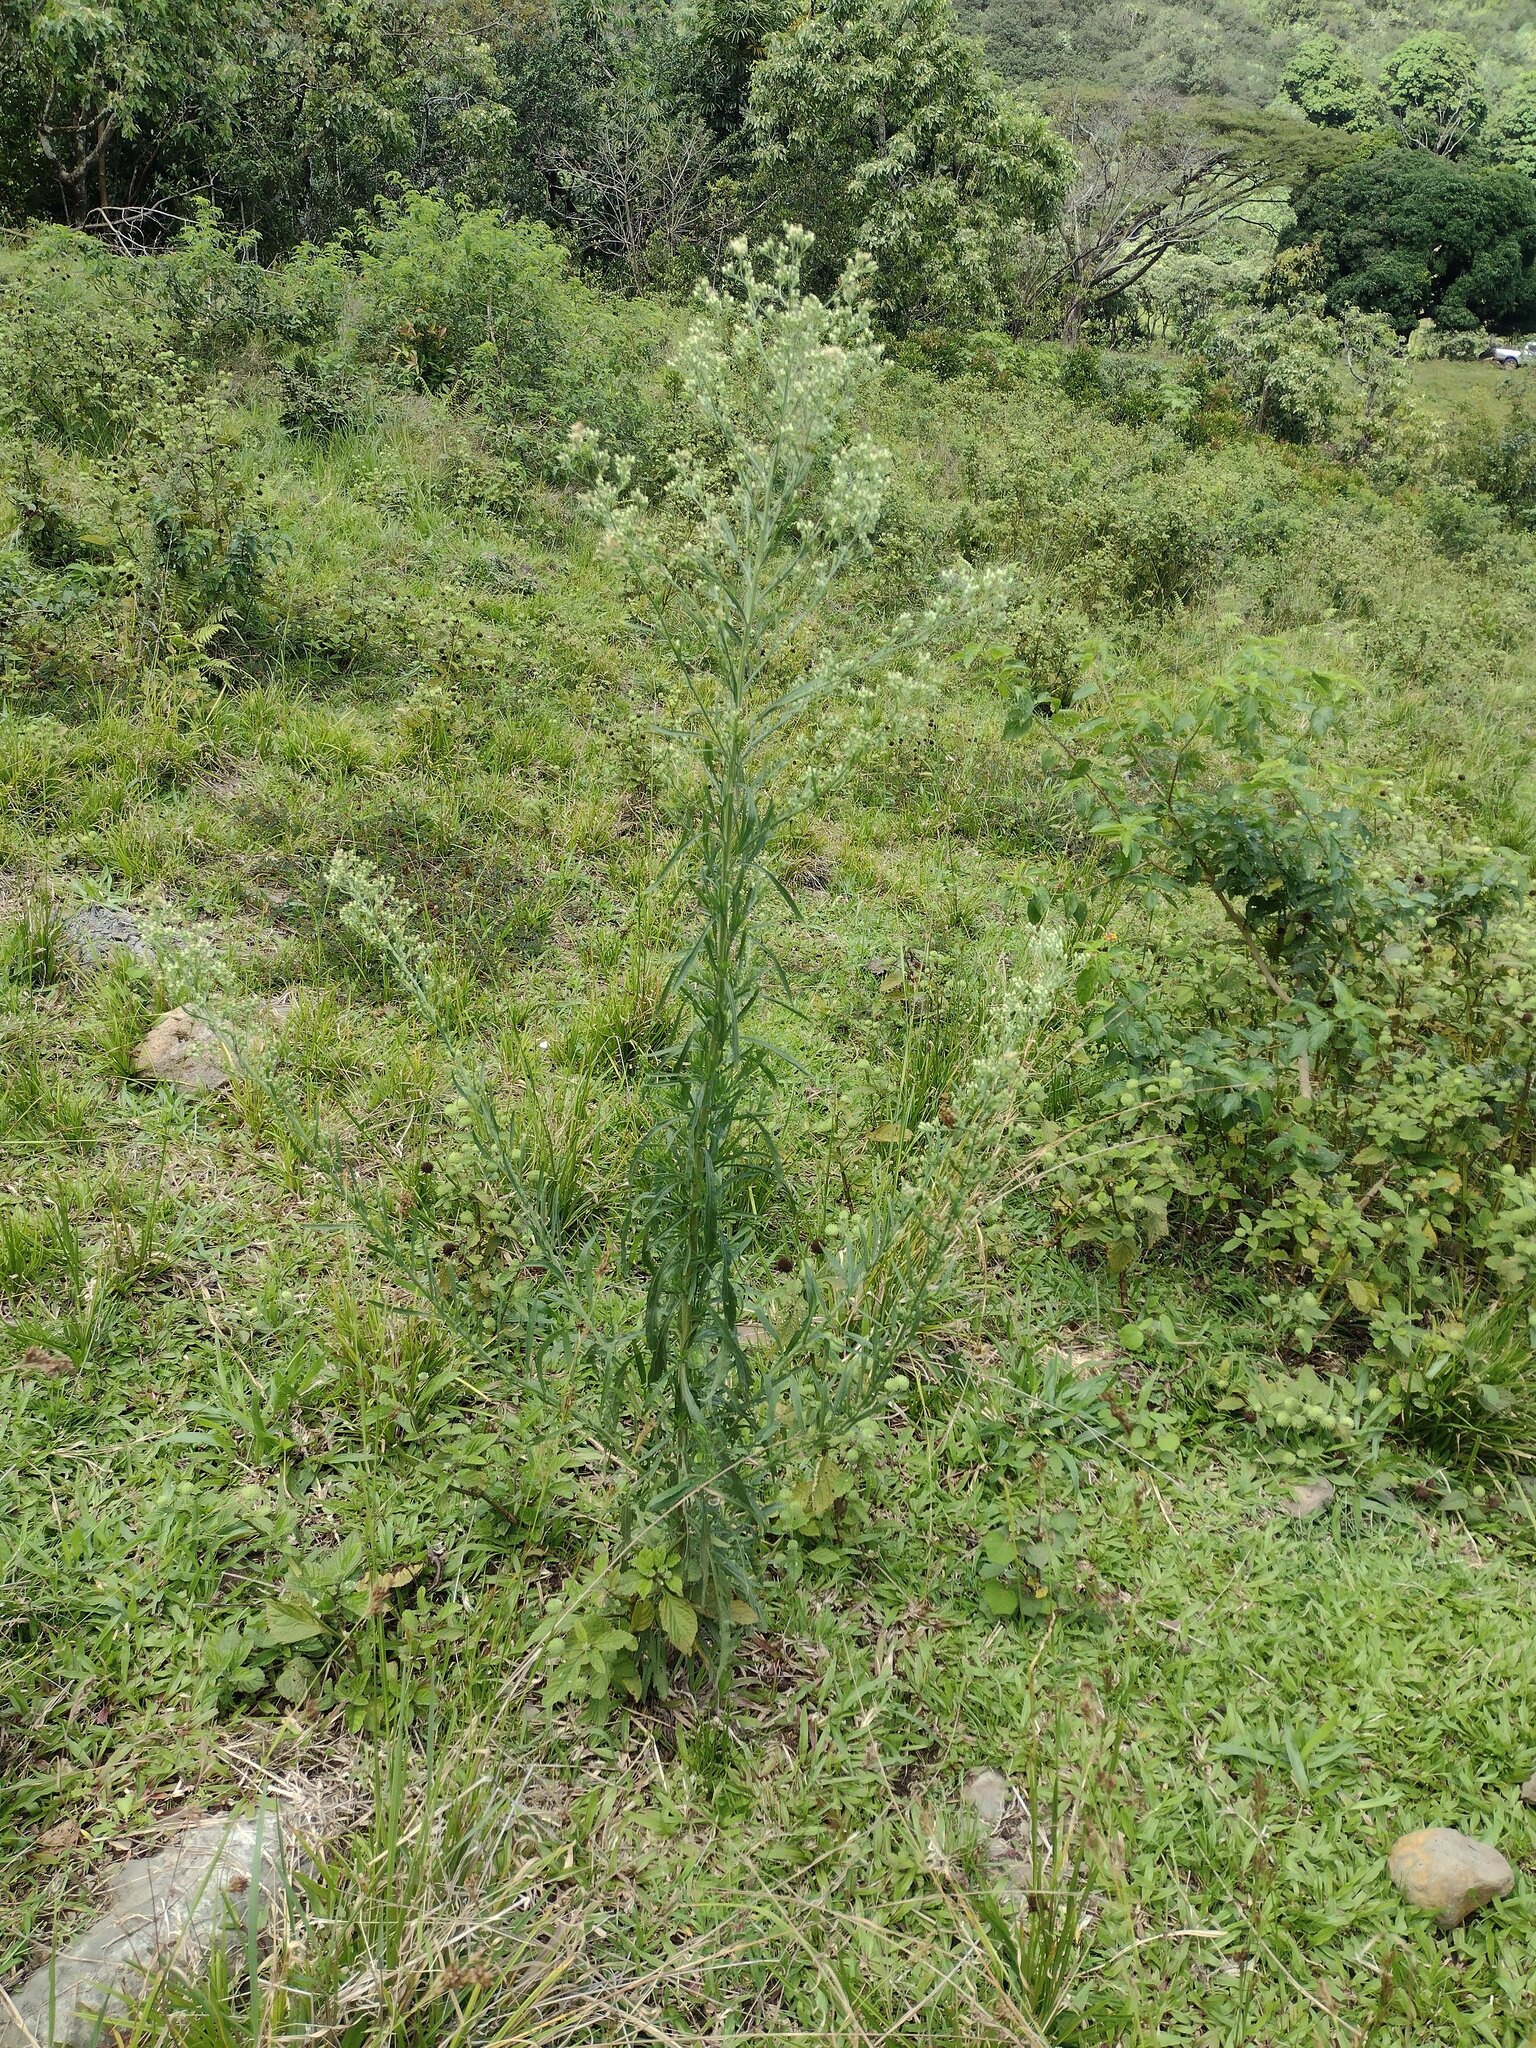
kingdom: Plantae
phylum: Tracheophyta
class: Magnoliopsida
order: Asterales
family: Asteraceae
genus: Erigeron
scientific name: Erigeron sumatrensis
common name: Daisy
